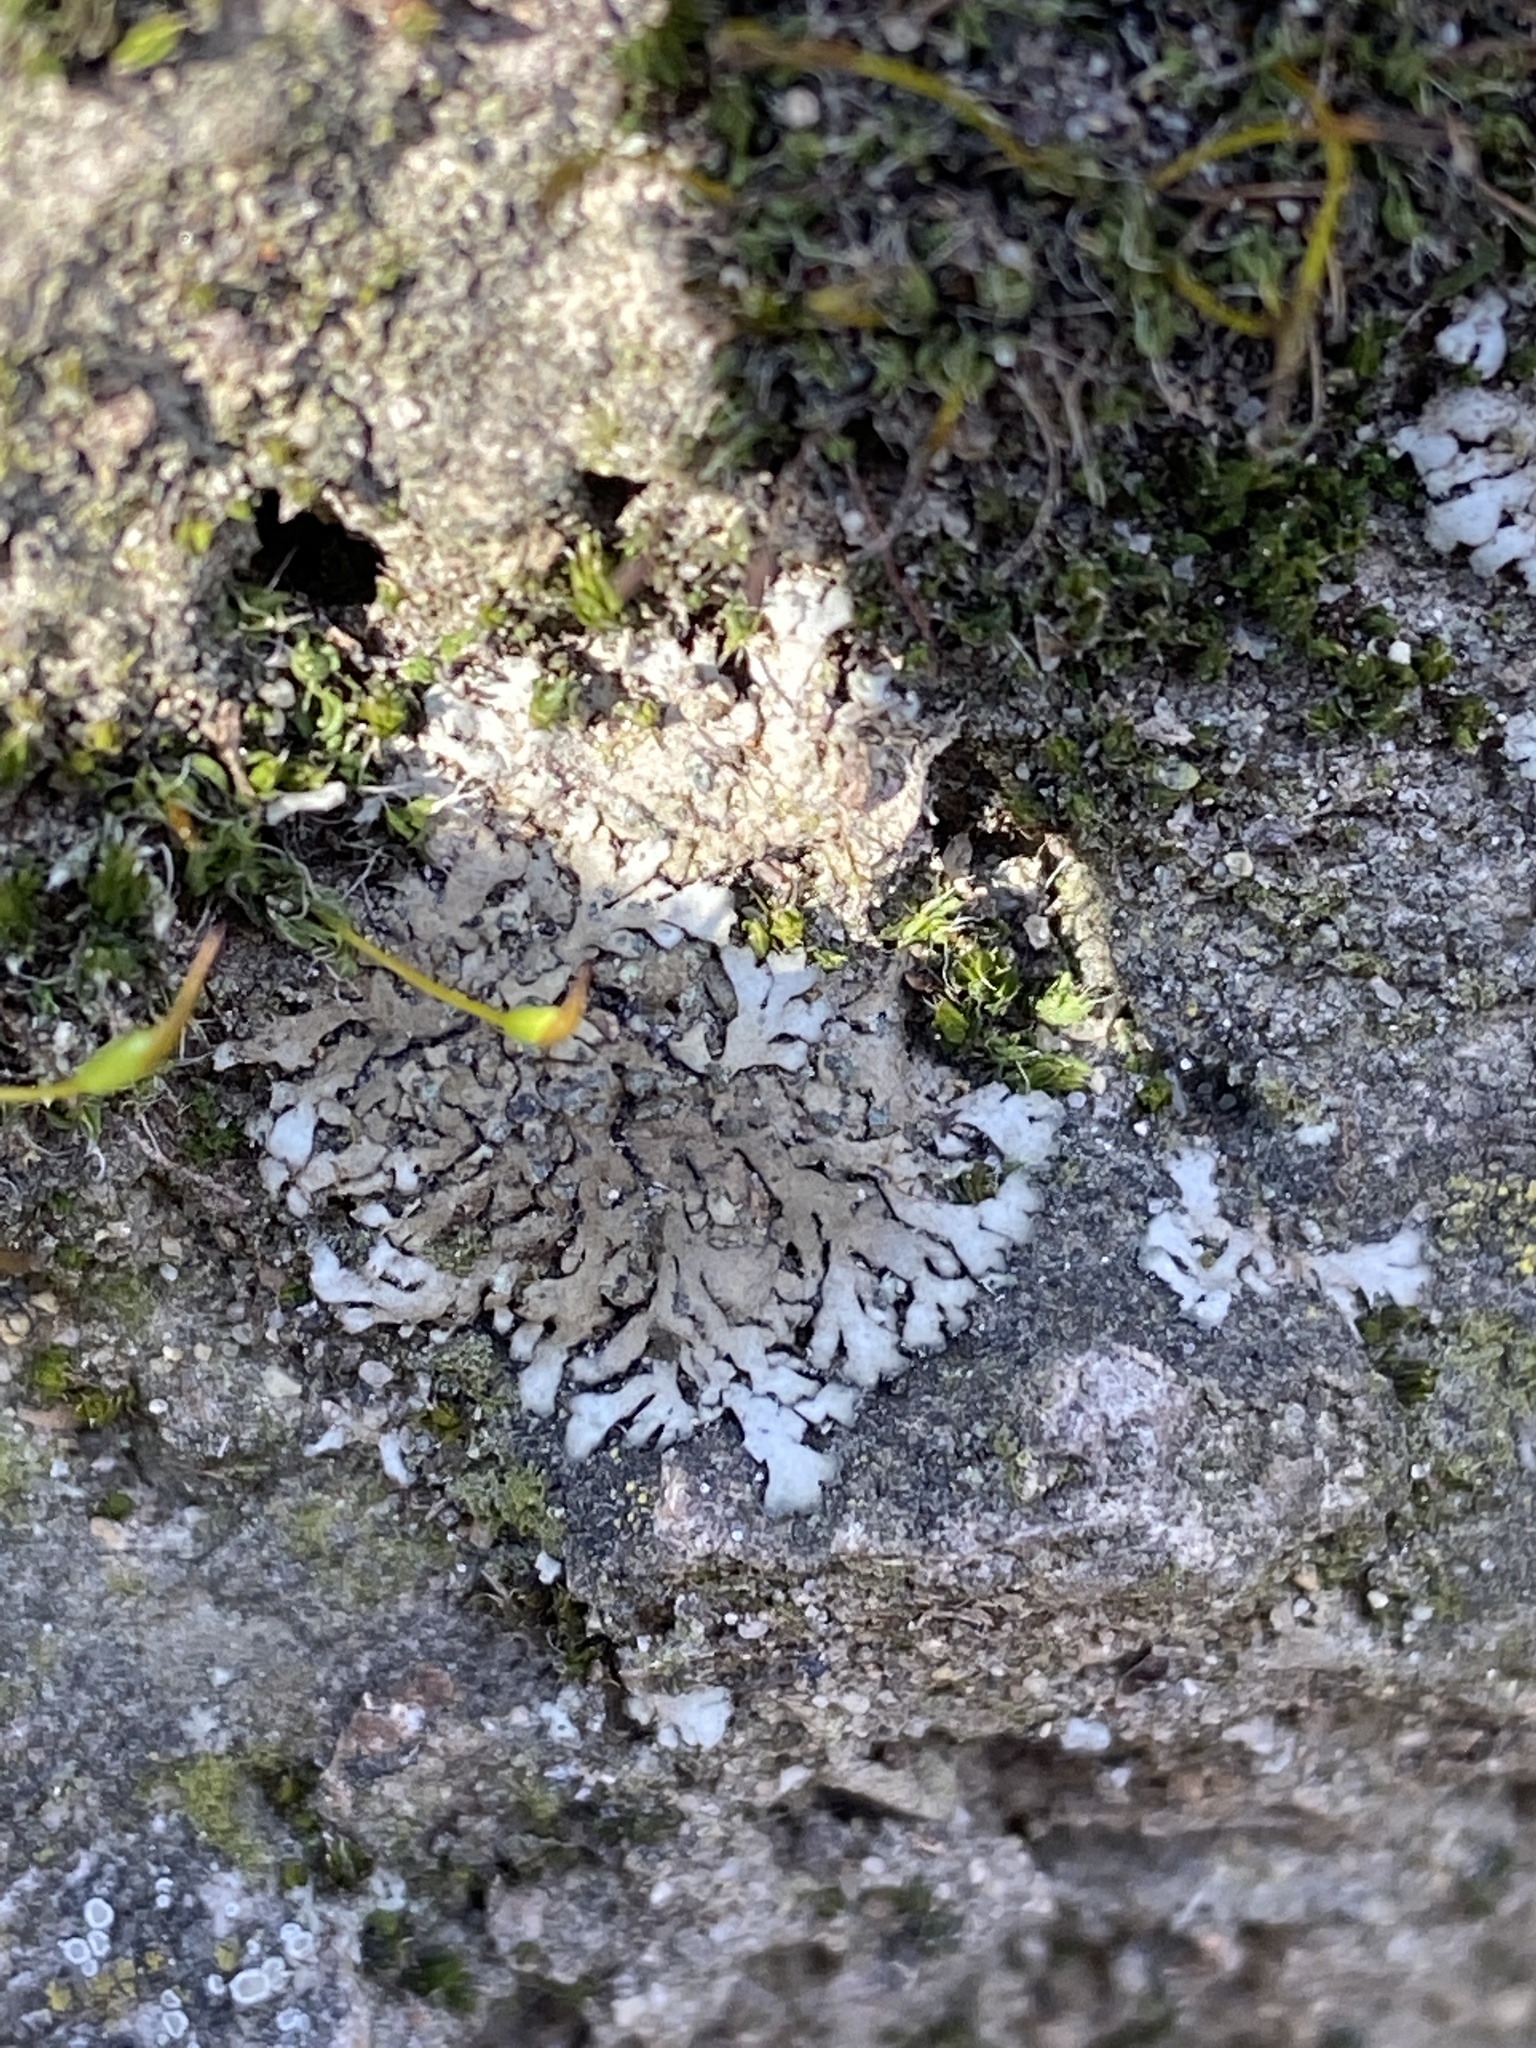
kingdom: Fungi
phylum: Ascomycota
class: Lecanoromycetes
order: Caliciales
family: Physciaceae
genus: Phaeophyscia
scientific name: Phaeophyscia orbicularis
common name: Mealy shadow lichen
